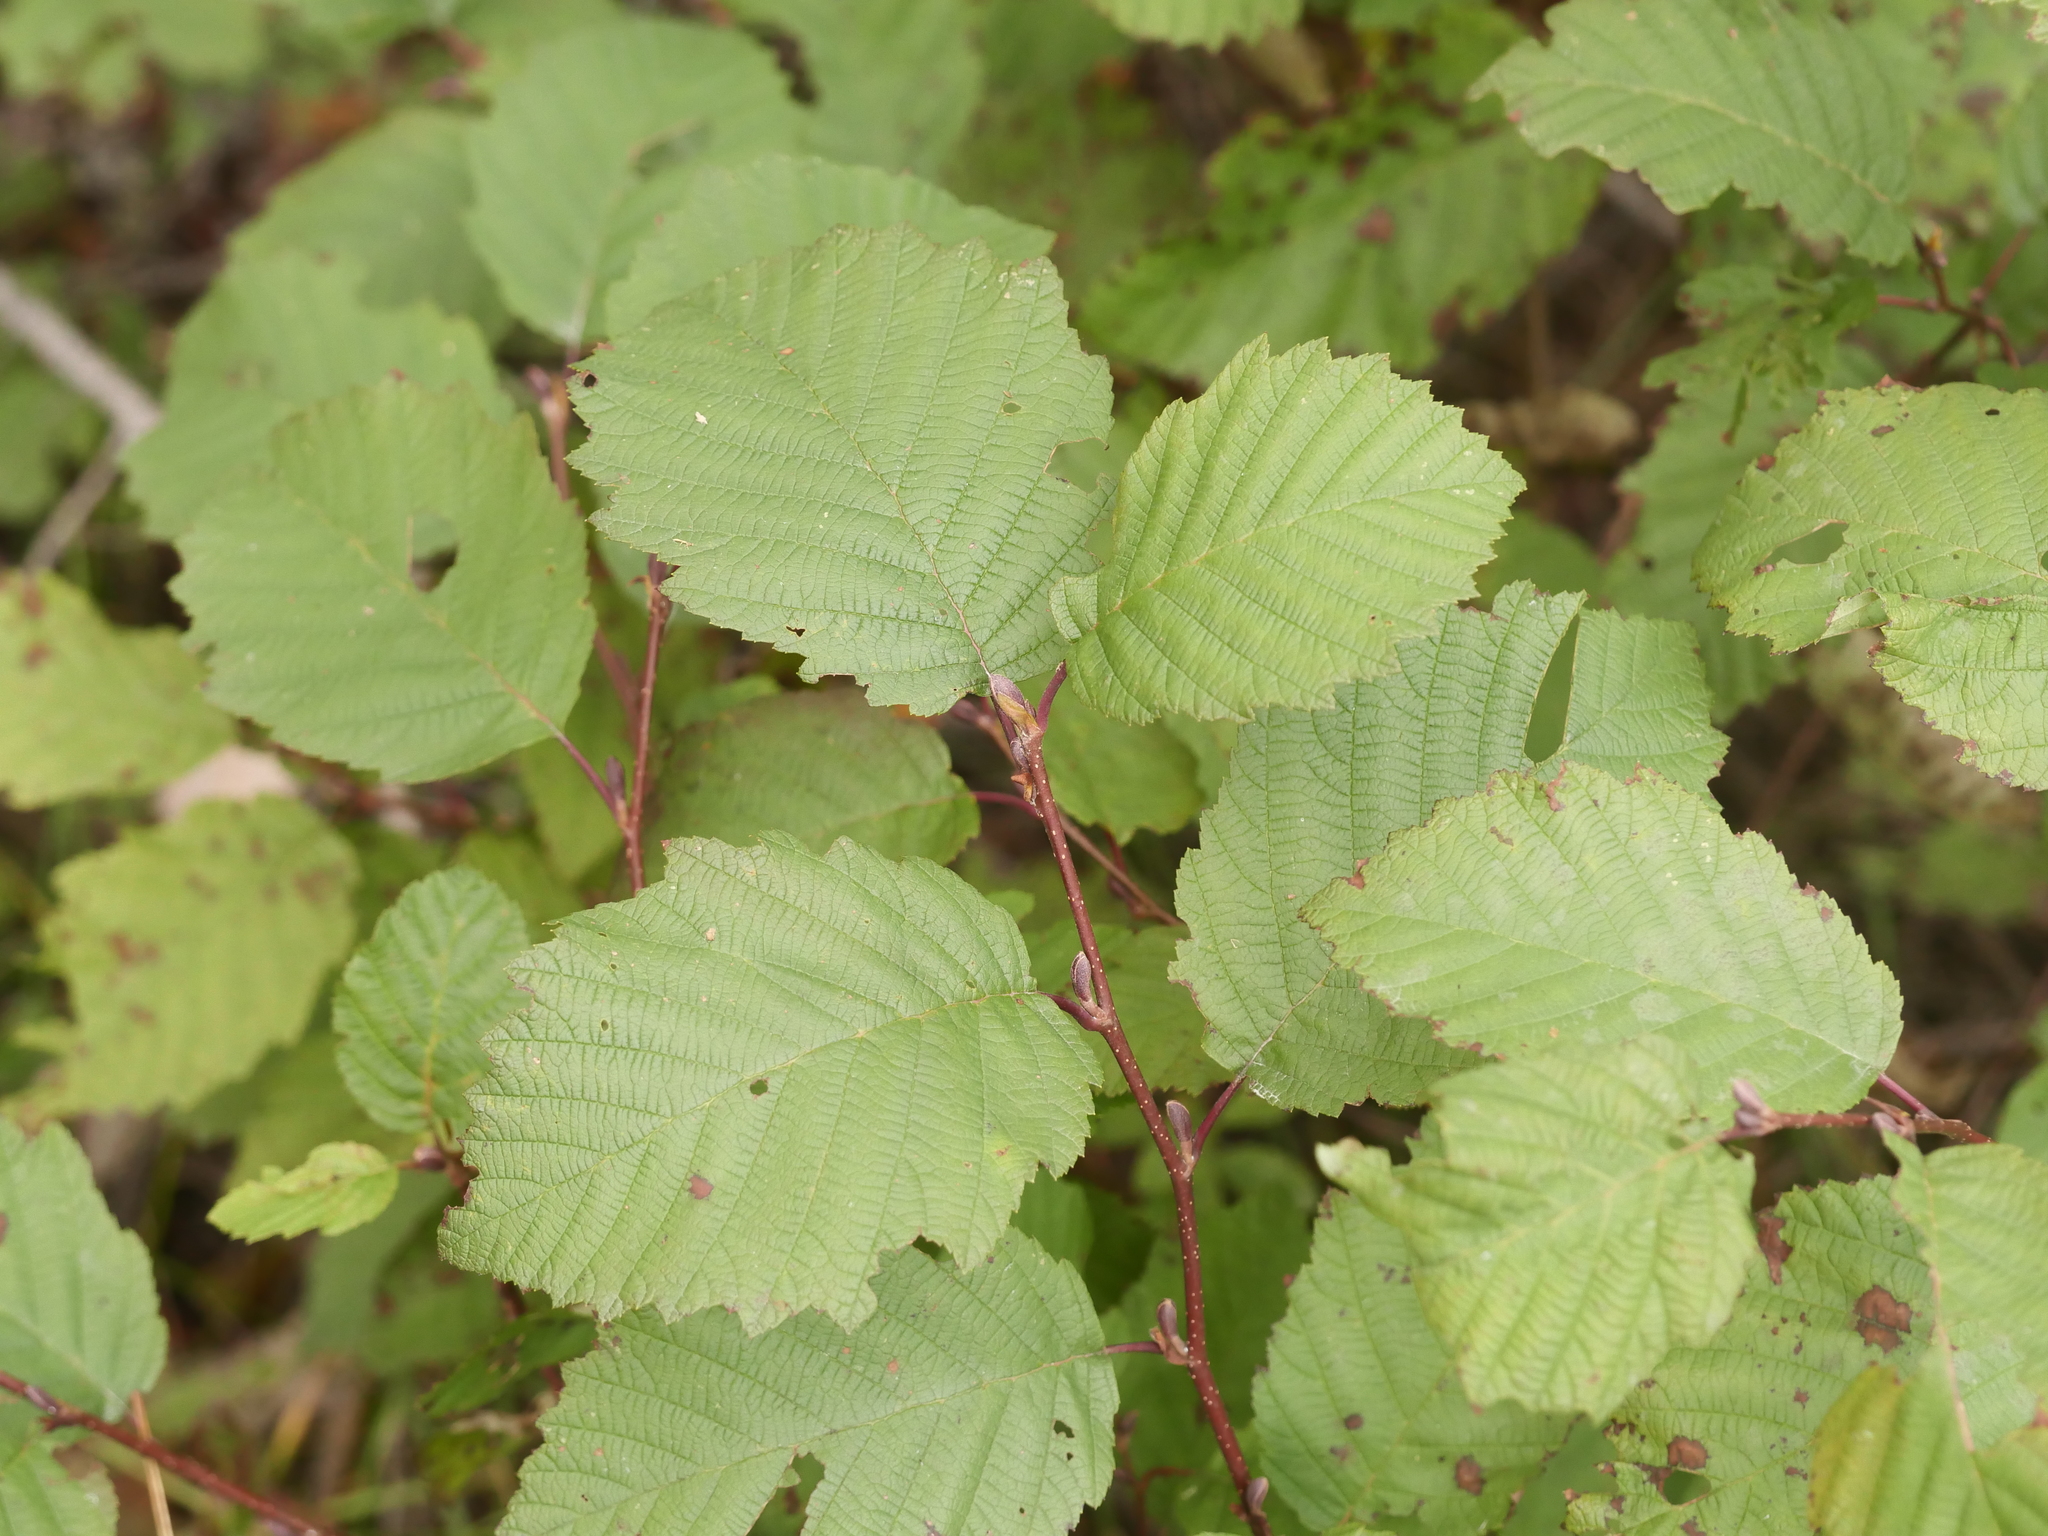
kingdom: Plantae
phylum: Tracheophyta
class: Magnoliopsida
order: Fagales
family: Betulaceae
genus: Alnus
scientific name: Alnus incana
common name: Grey alder
